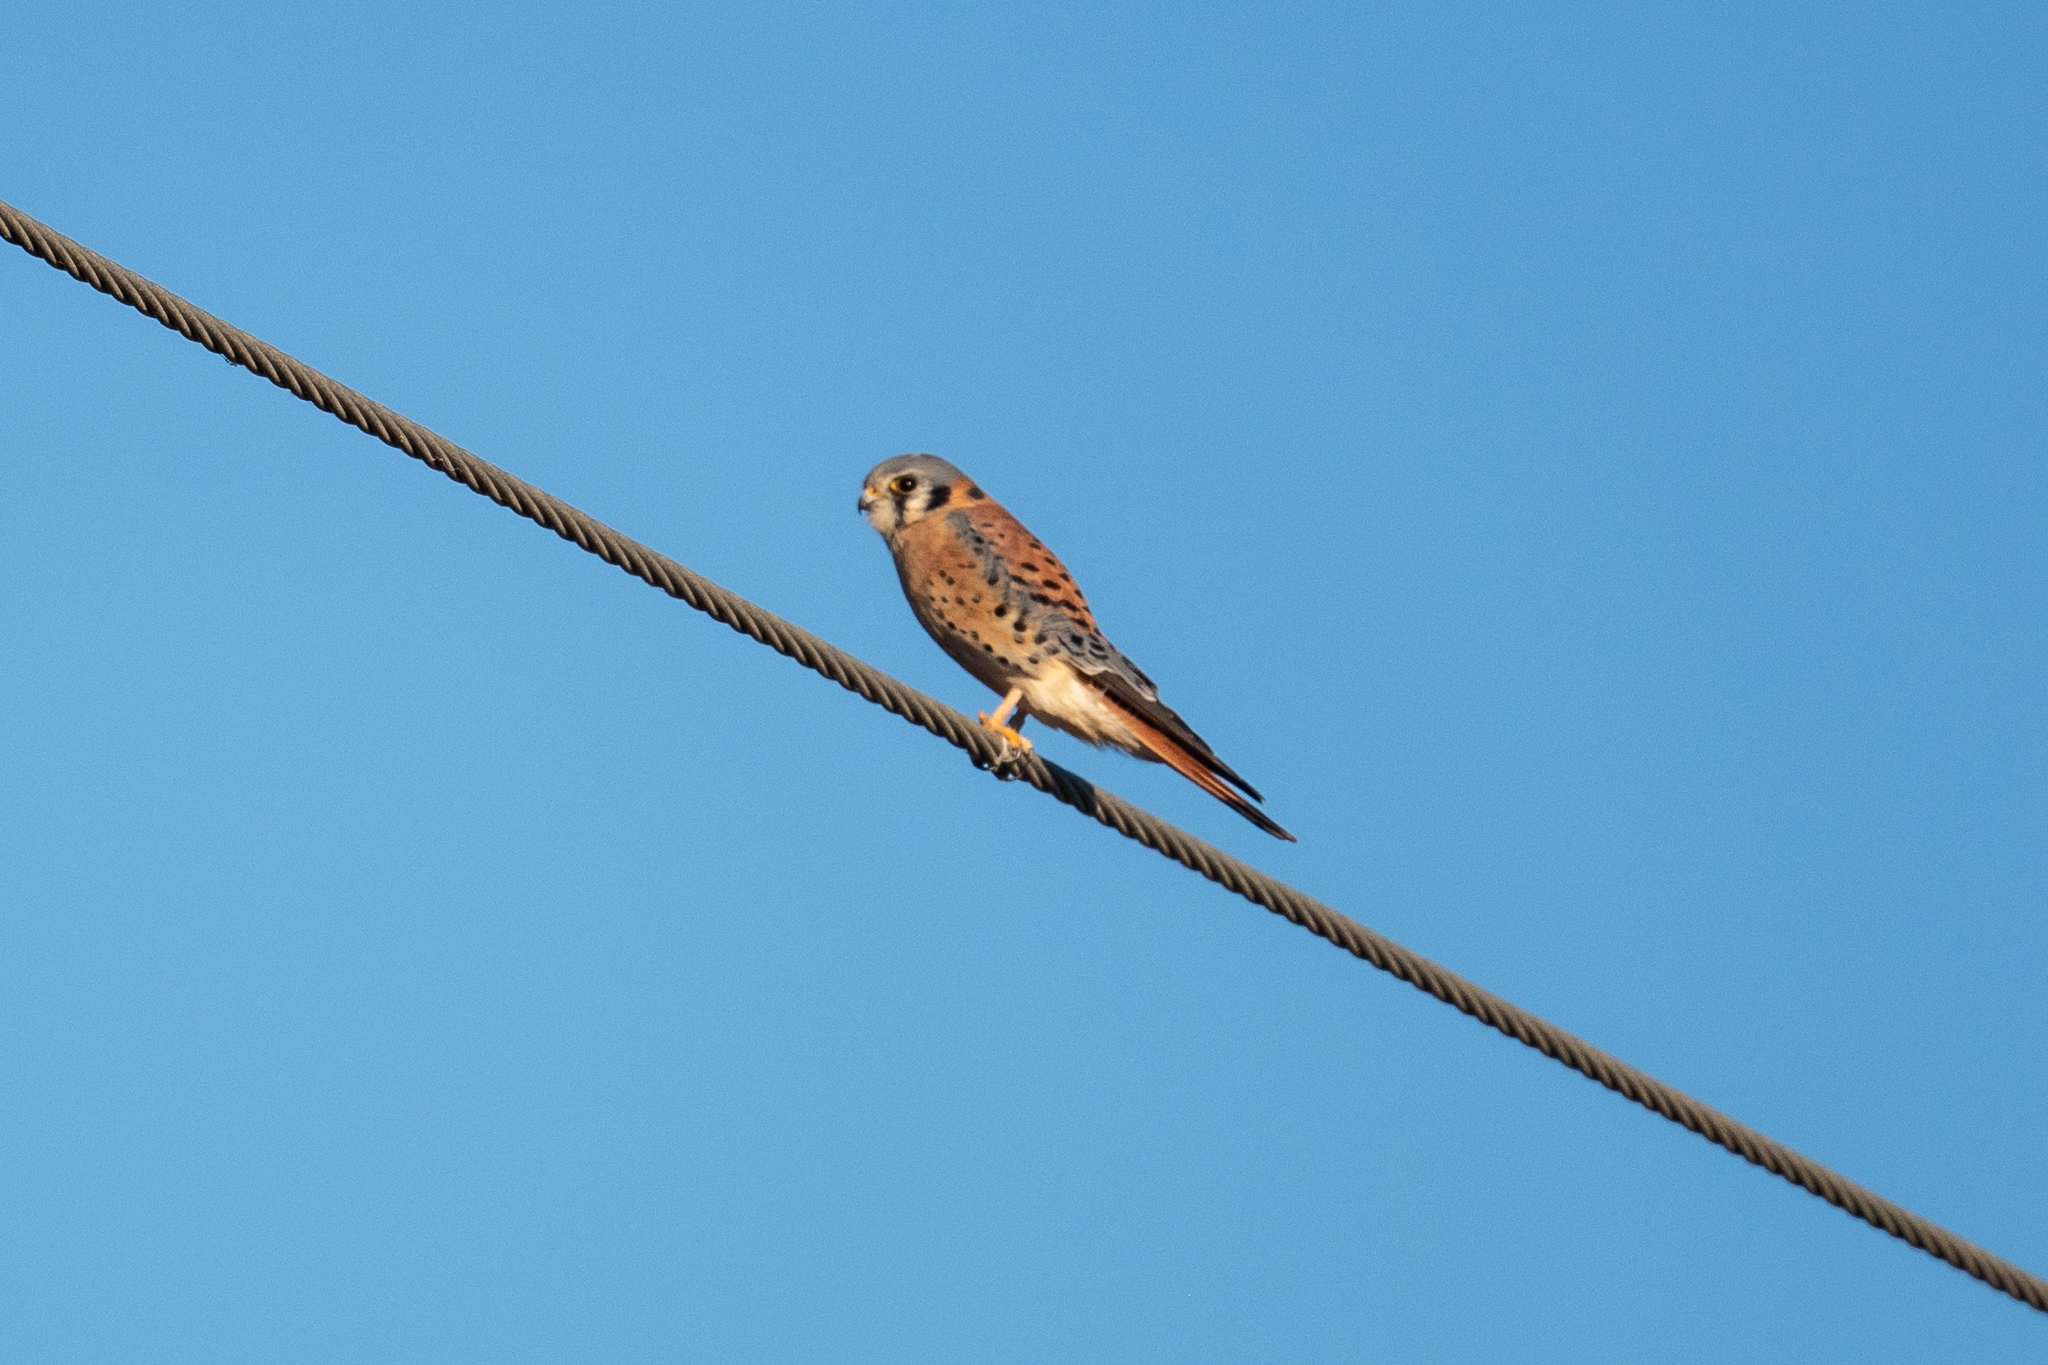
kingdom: Animalia
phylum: Chordata
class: Aves
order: Falconiformes
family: Falconidae
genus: Falco
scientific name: Falco sparverius
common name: American kestrel
